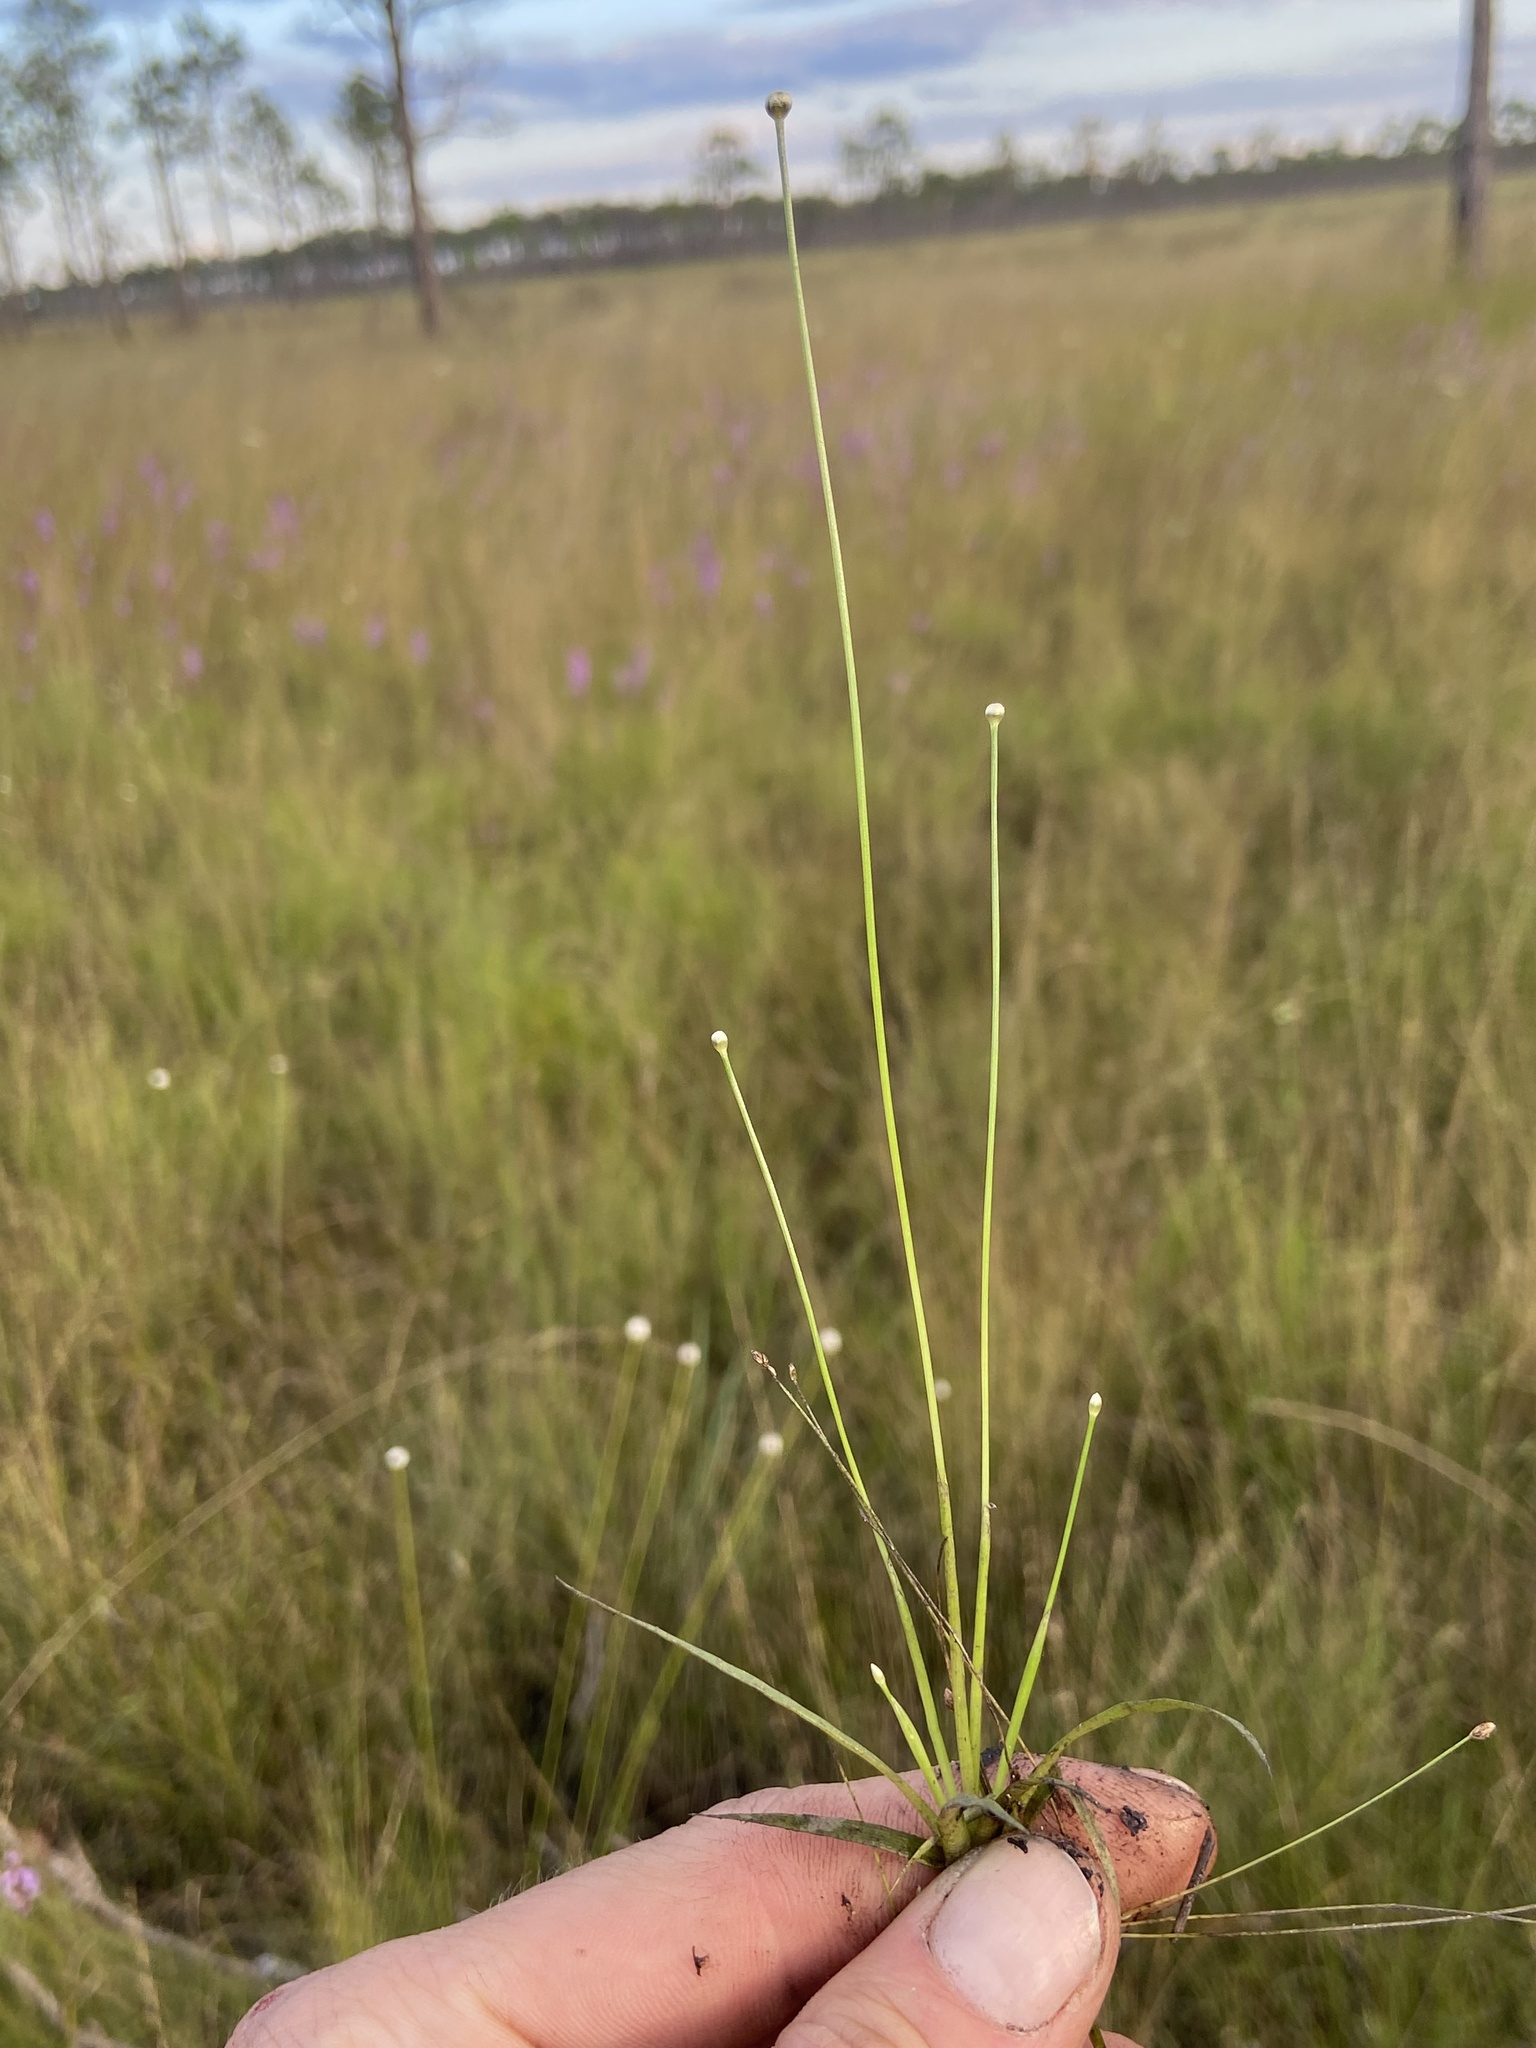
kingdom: Plantae
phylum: Tracheophyta
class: Liliopsida
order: Poales
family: Eriocaulaceae
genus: Eriocaulon
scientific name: Eriocaulon ravenelii
